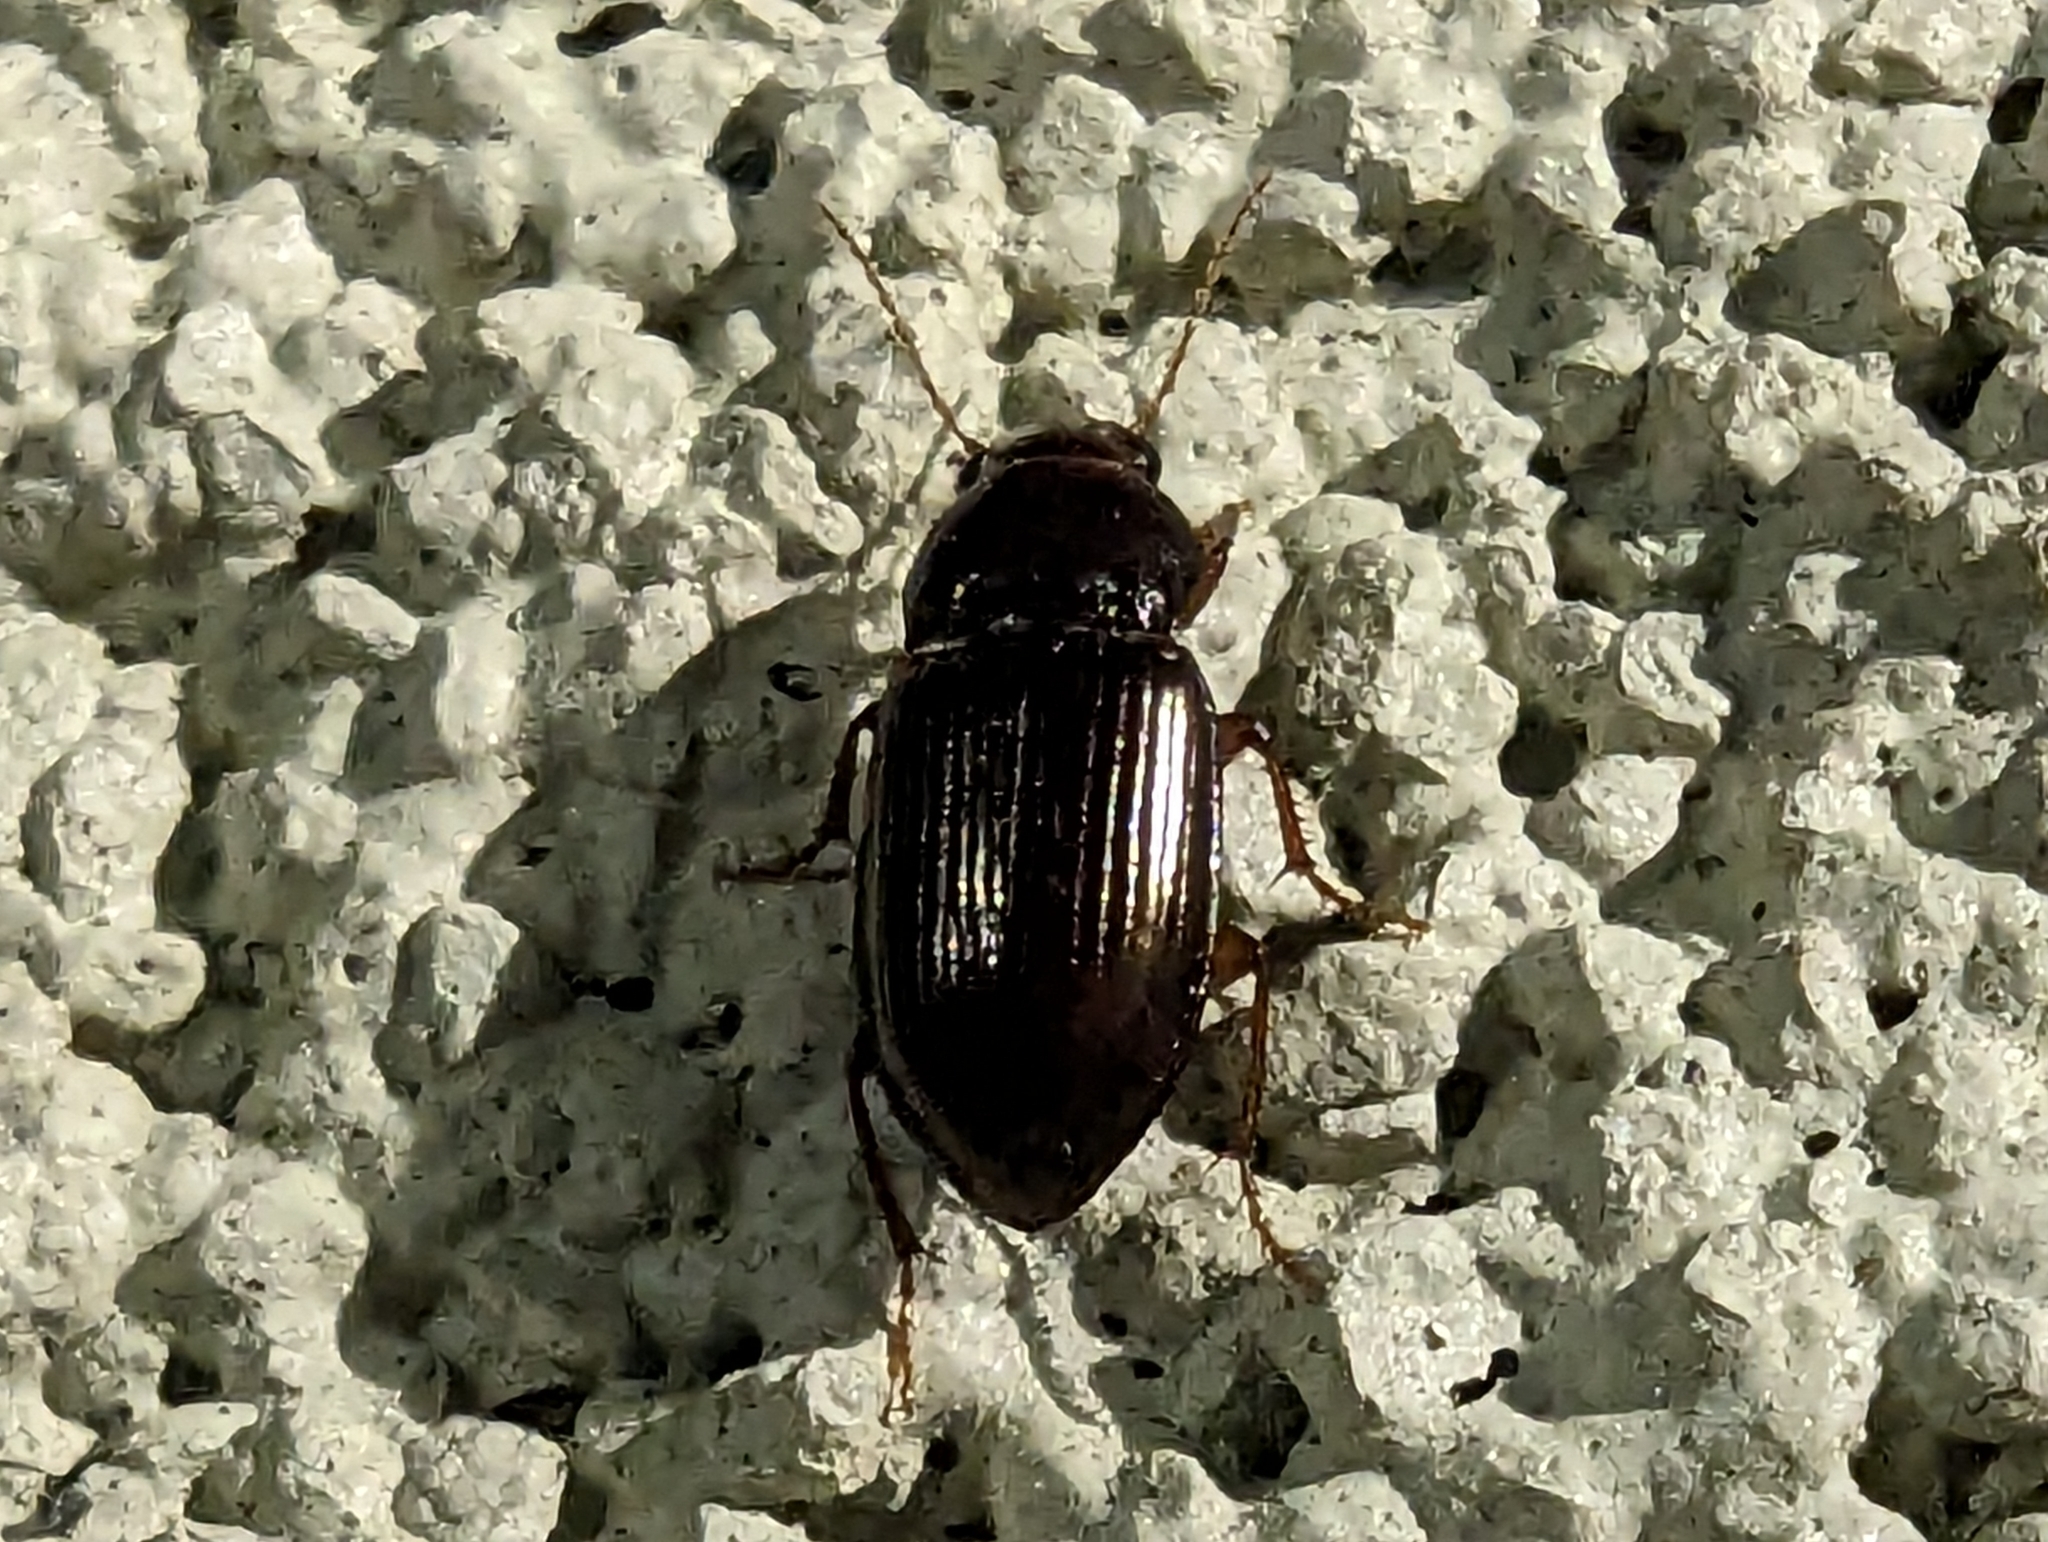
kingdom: Animalia
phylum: Arthropoda
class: Insecta
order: Coleoptera
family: Carabidae
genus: Amara
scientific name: Amara apricaria
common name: Exposed sun beetle
